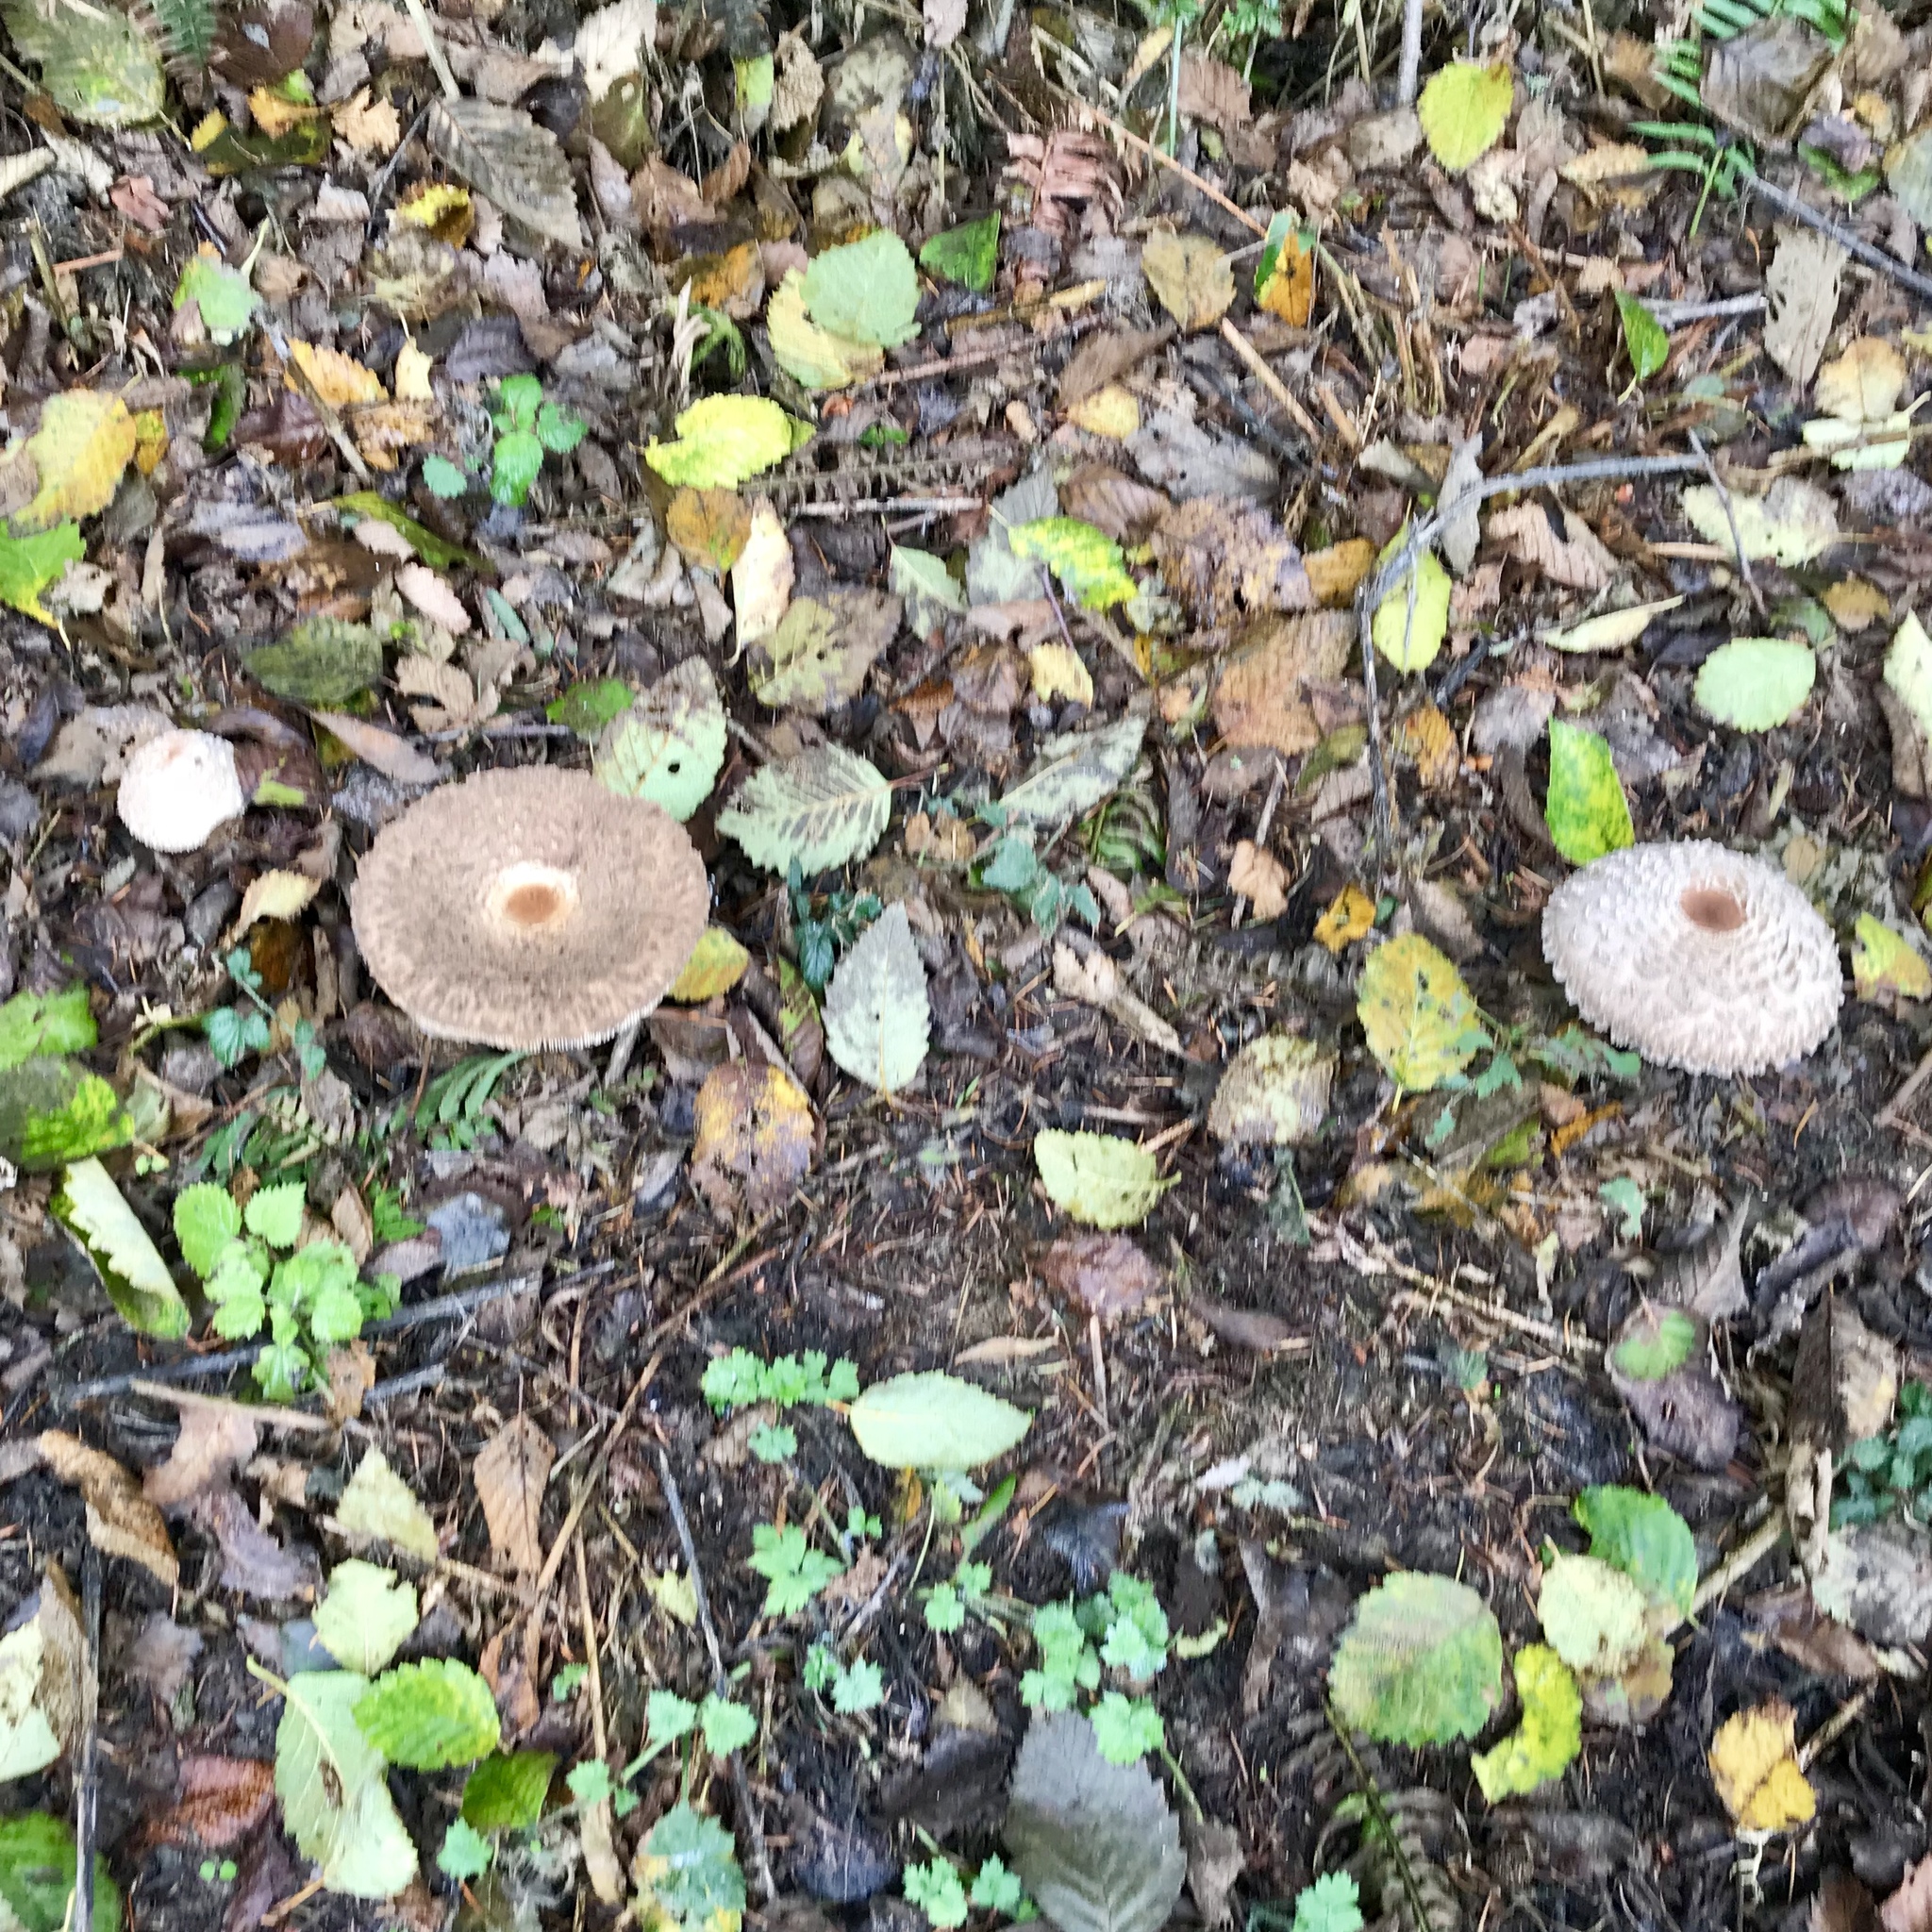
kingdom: Fungi
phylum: Basidiomycota
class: Agaricomycetes
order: Agaricales
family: Agaricaceae
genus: Chlorophyllum
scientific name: Chlorophyllum olivieri
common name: Conifer parasol
